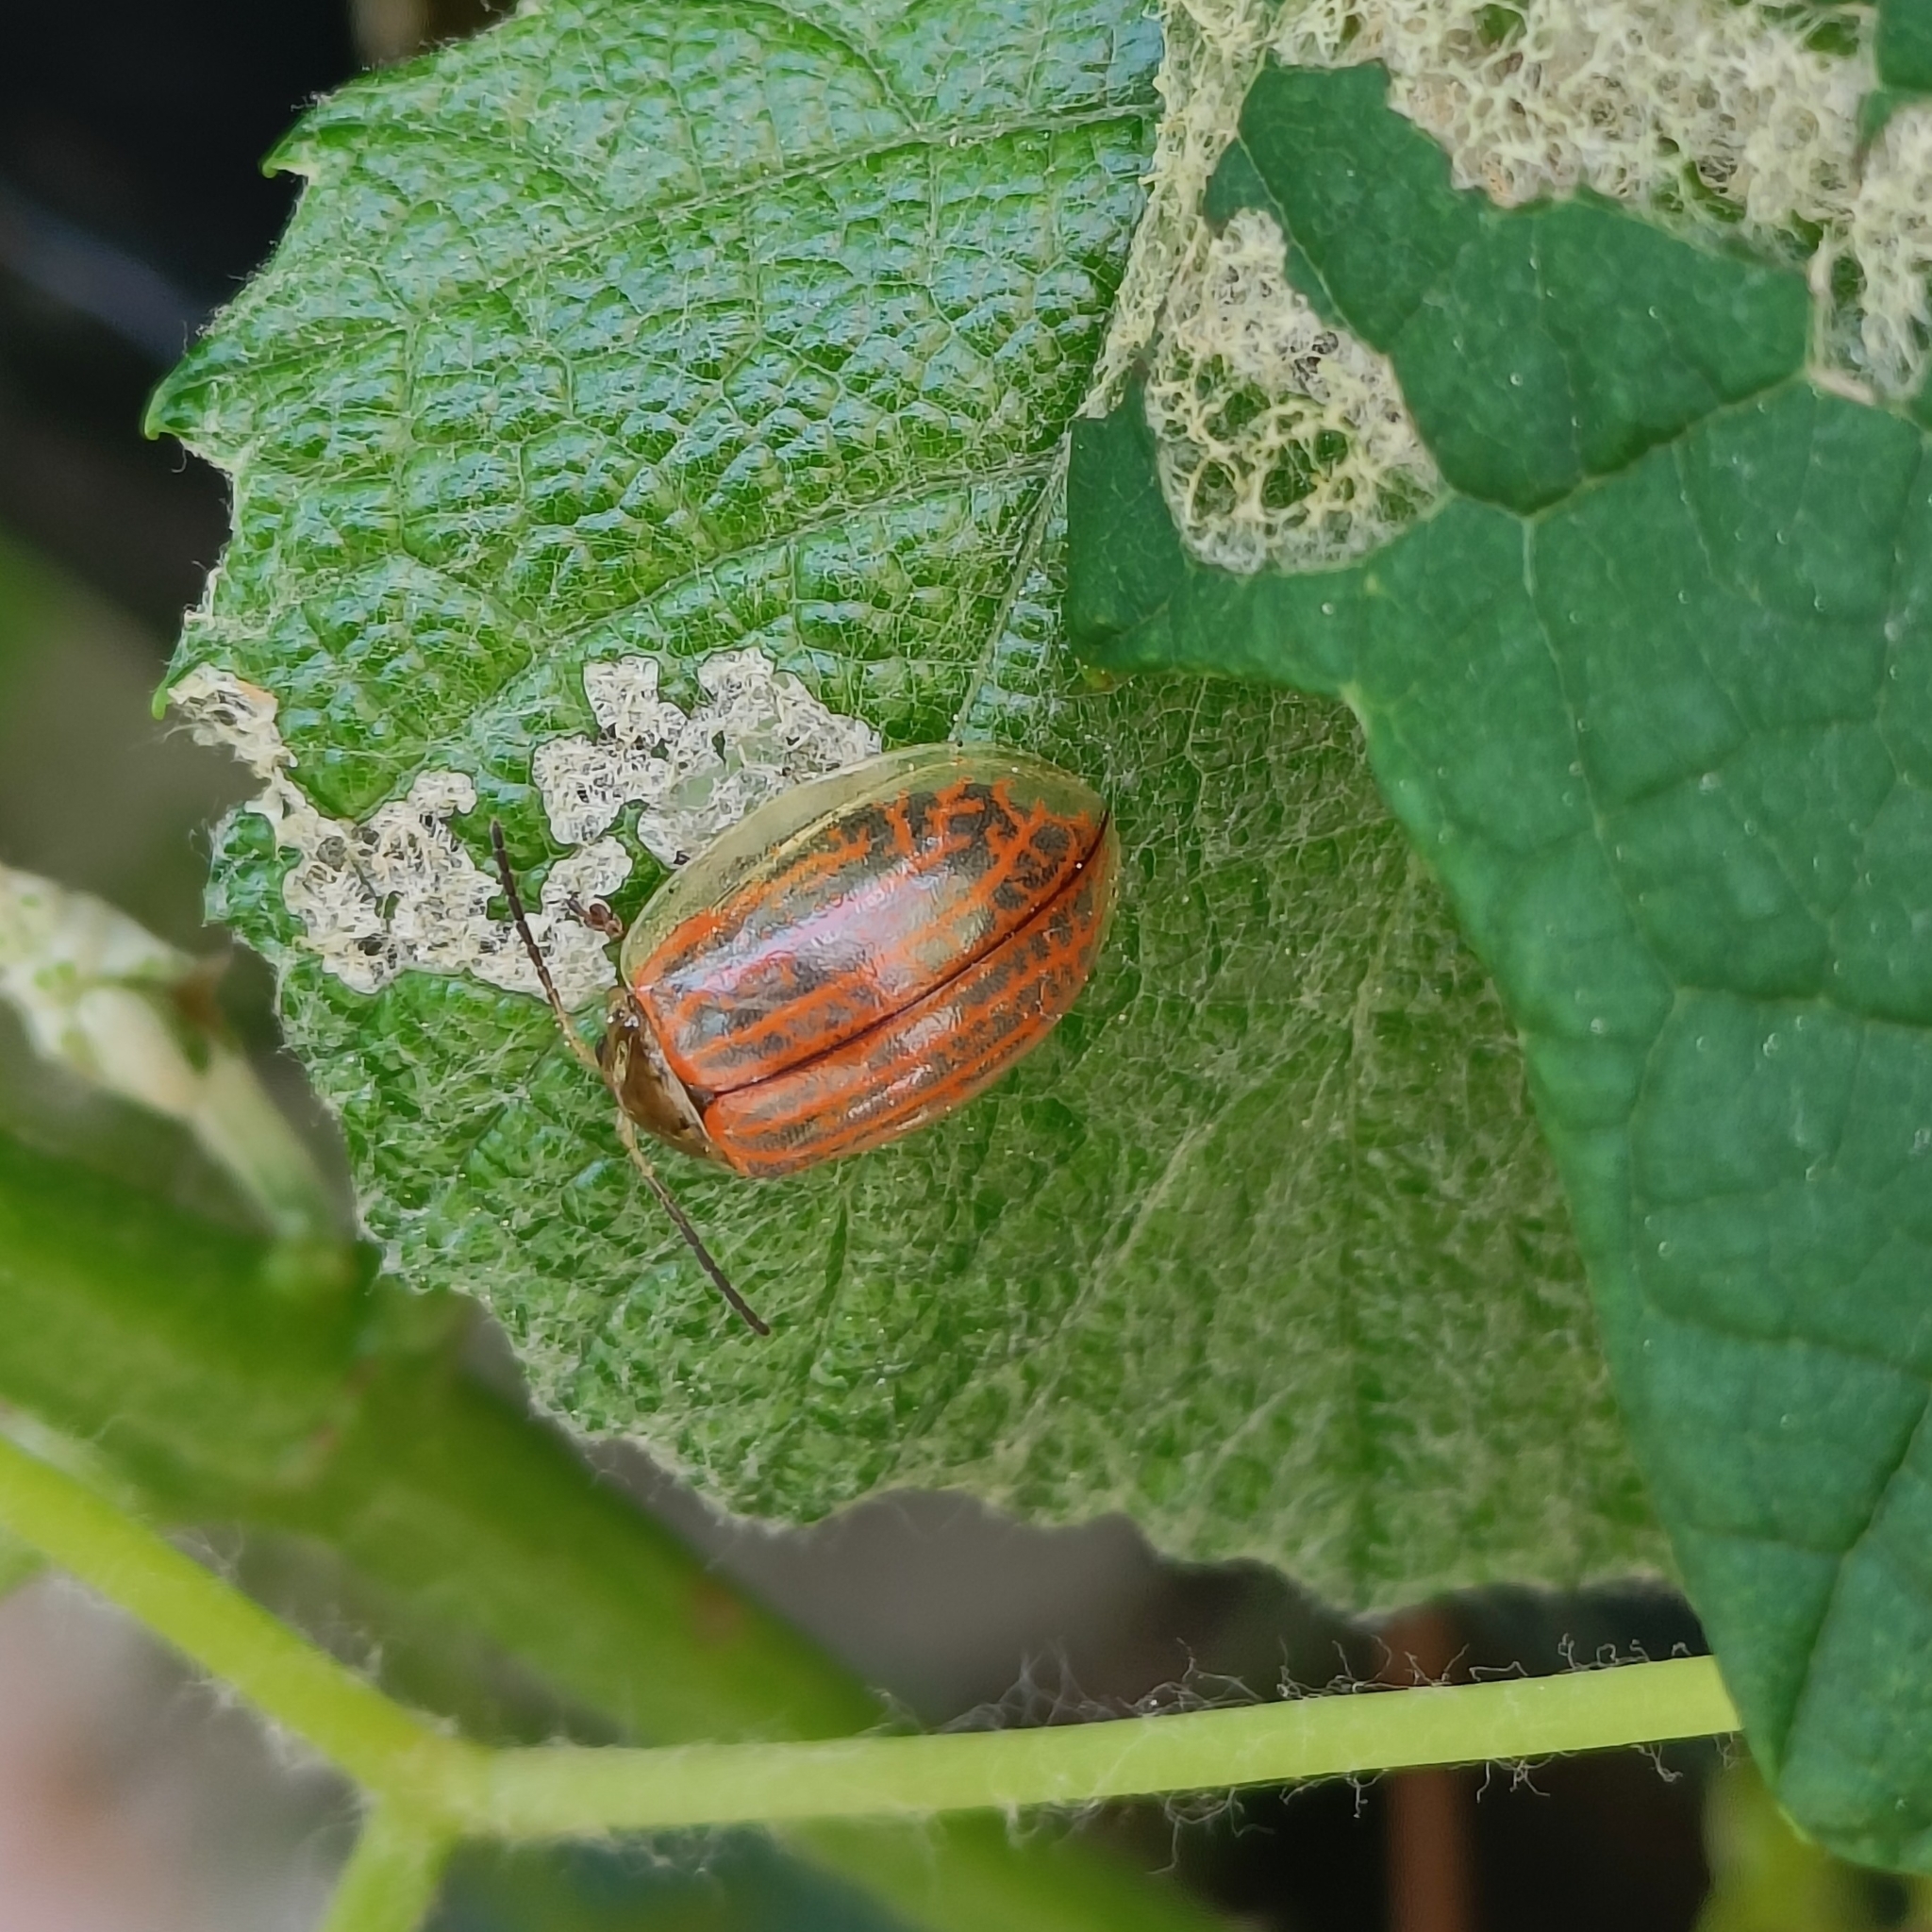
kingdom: Animalia
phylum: Arthropoda
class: Insecta
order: Coleoptera
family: Chrysomelidae
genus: Oides
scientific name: Oides scutellata
